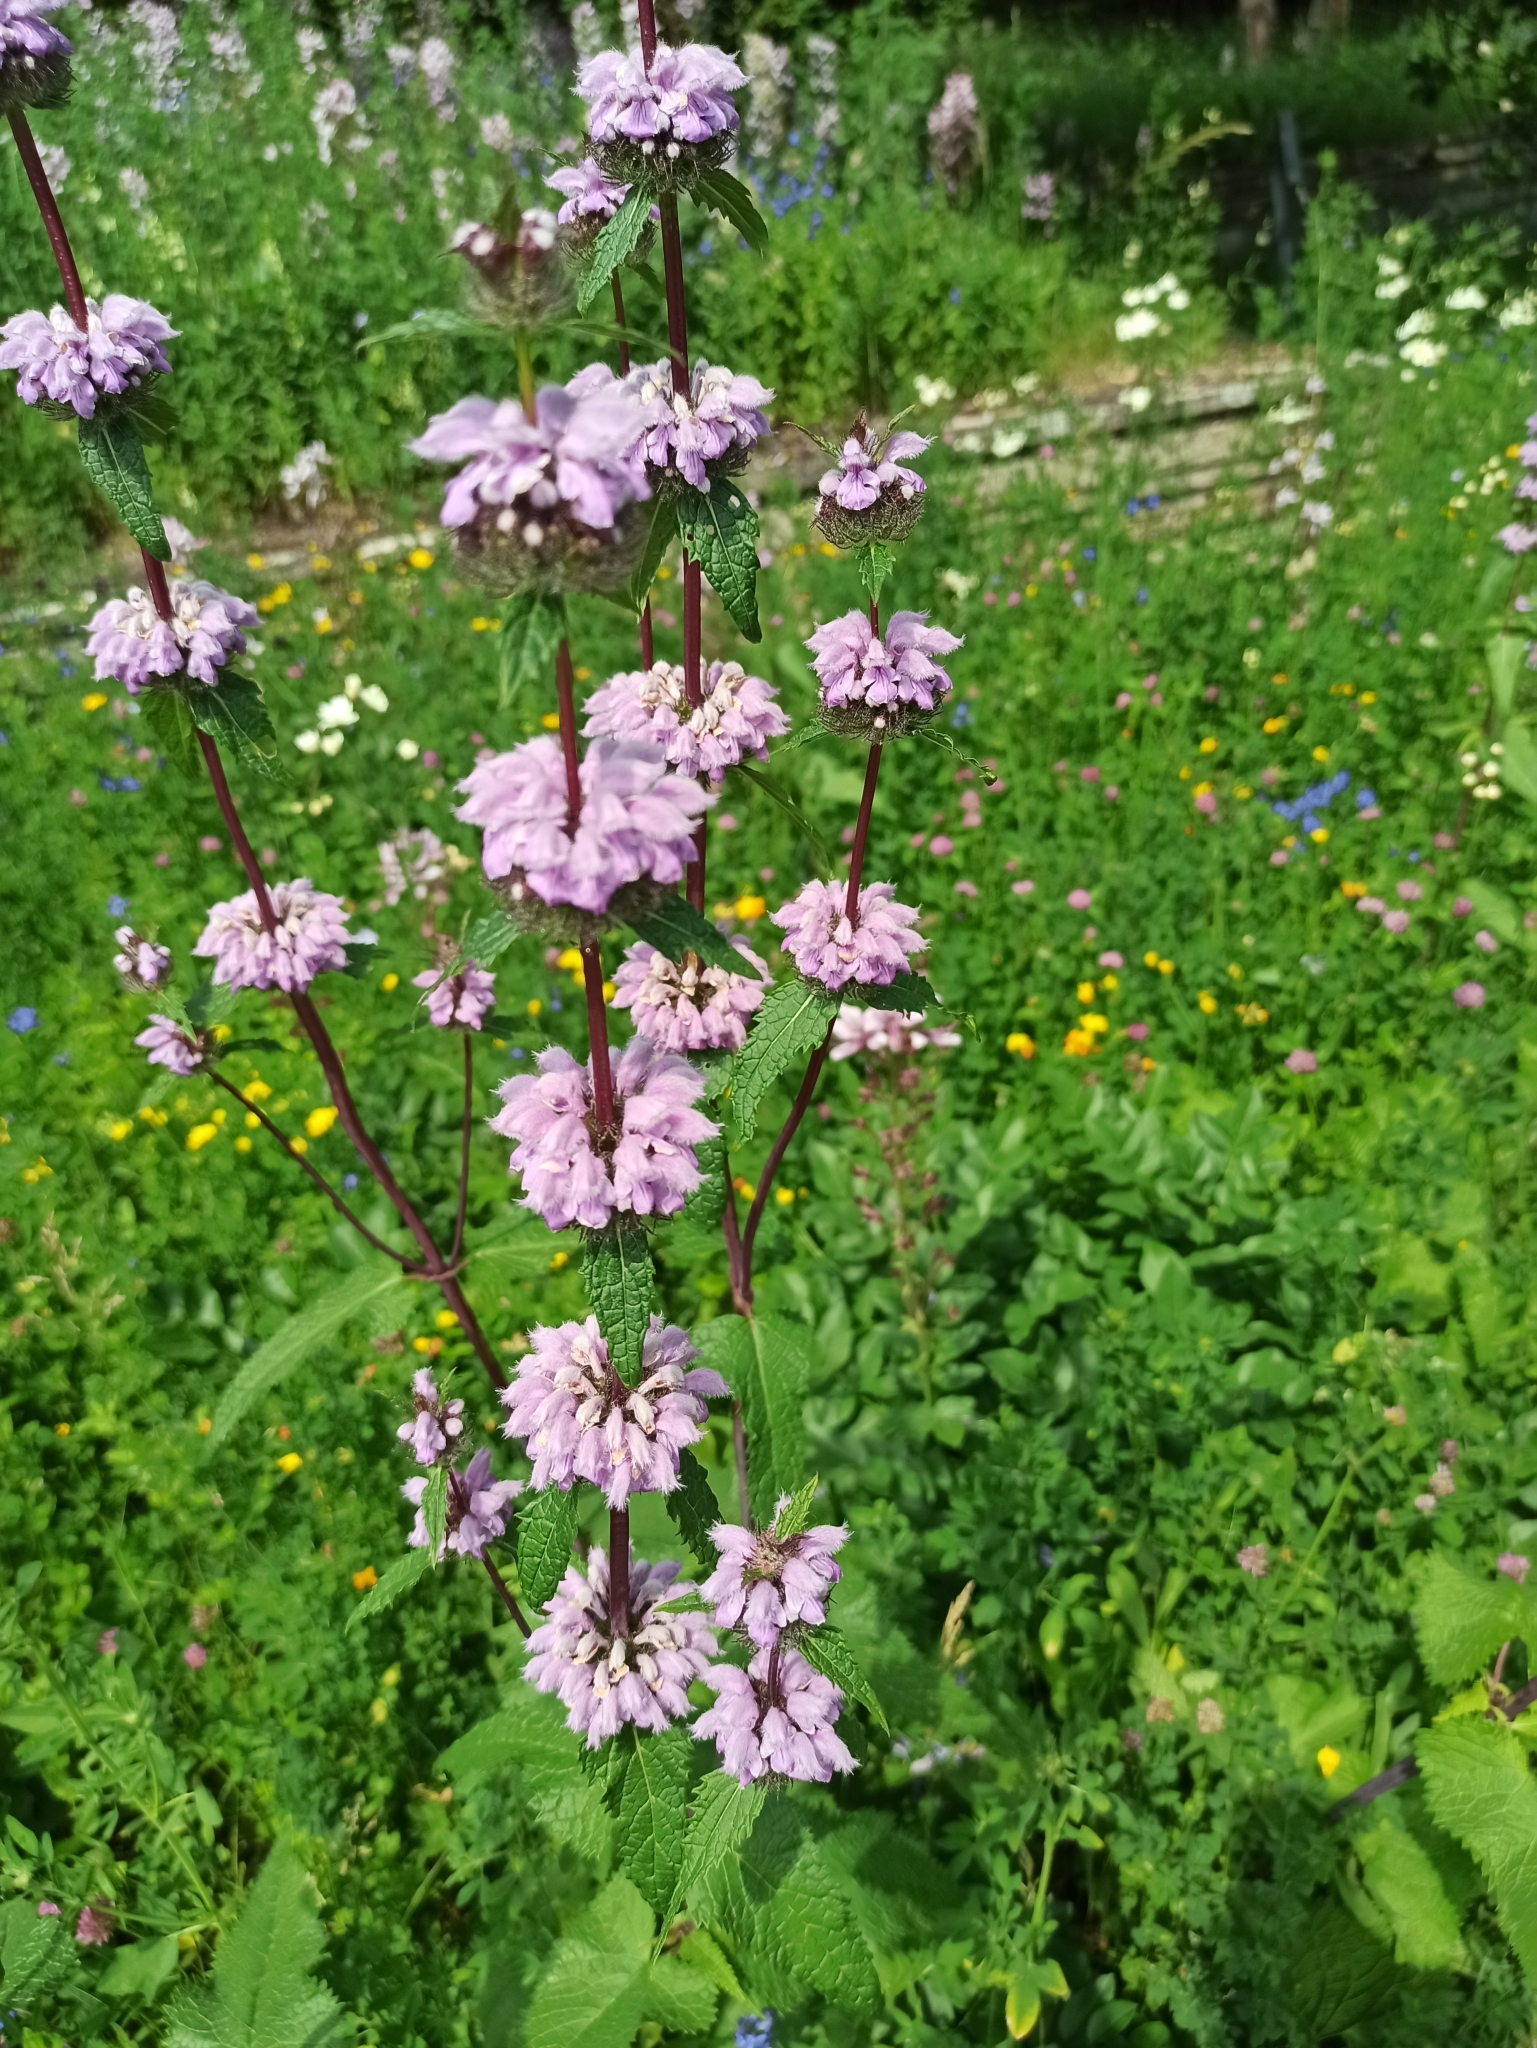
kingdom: Plantae
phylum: Tracheophyta
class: Magnoliopsida
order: Lamiales
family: Lamiaceae
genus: Phlomoides
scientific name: Phlomoides tuberosa
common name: Tuberous jerusalem sage
